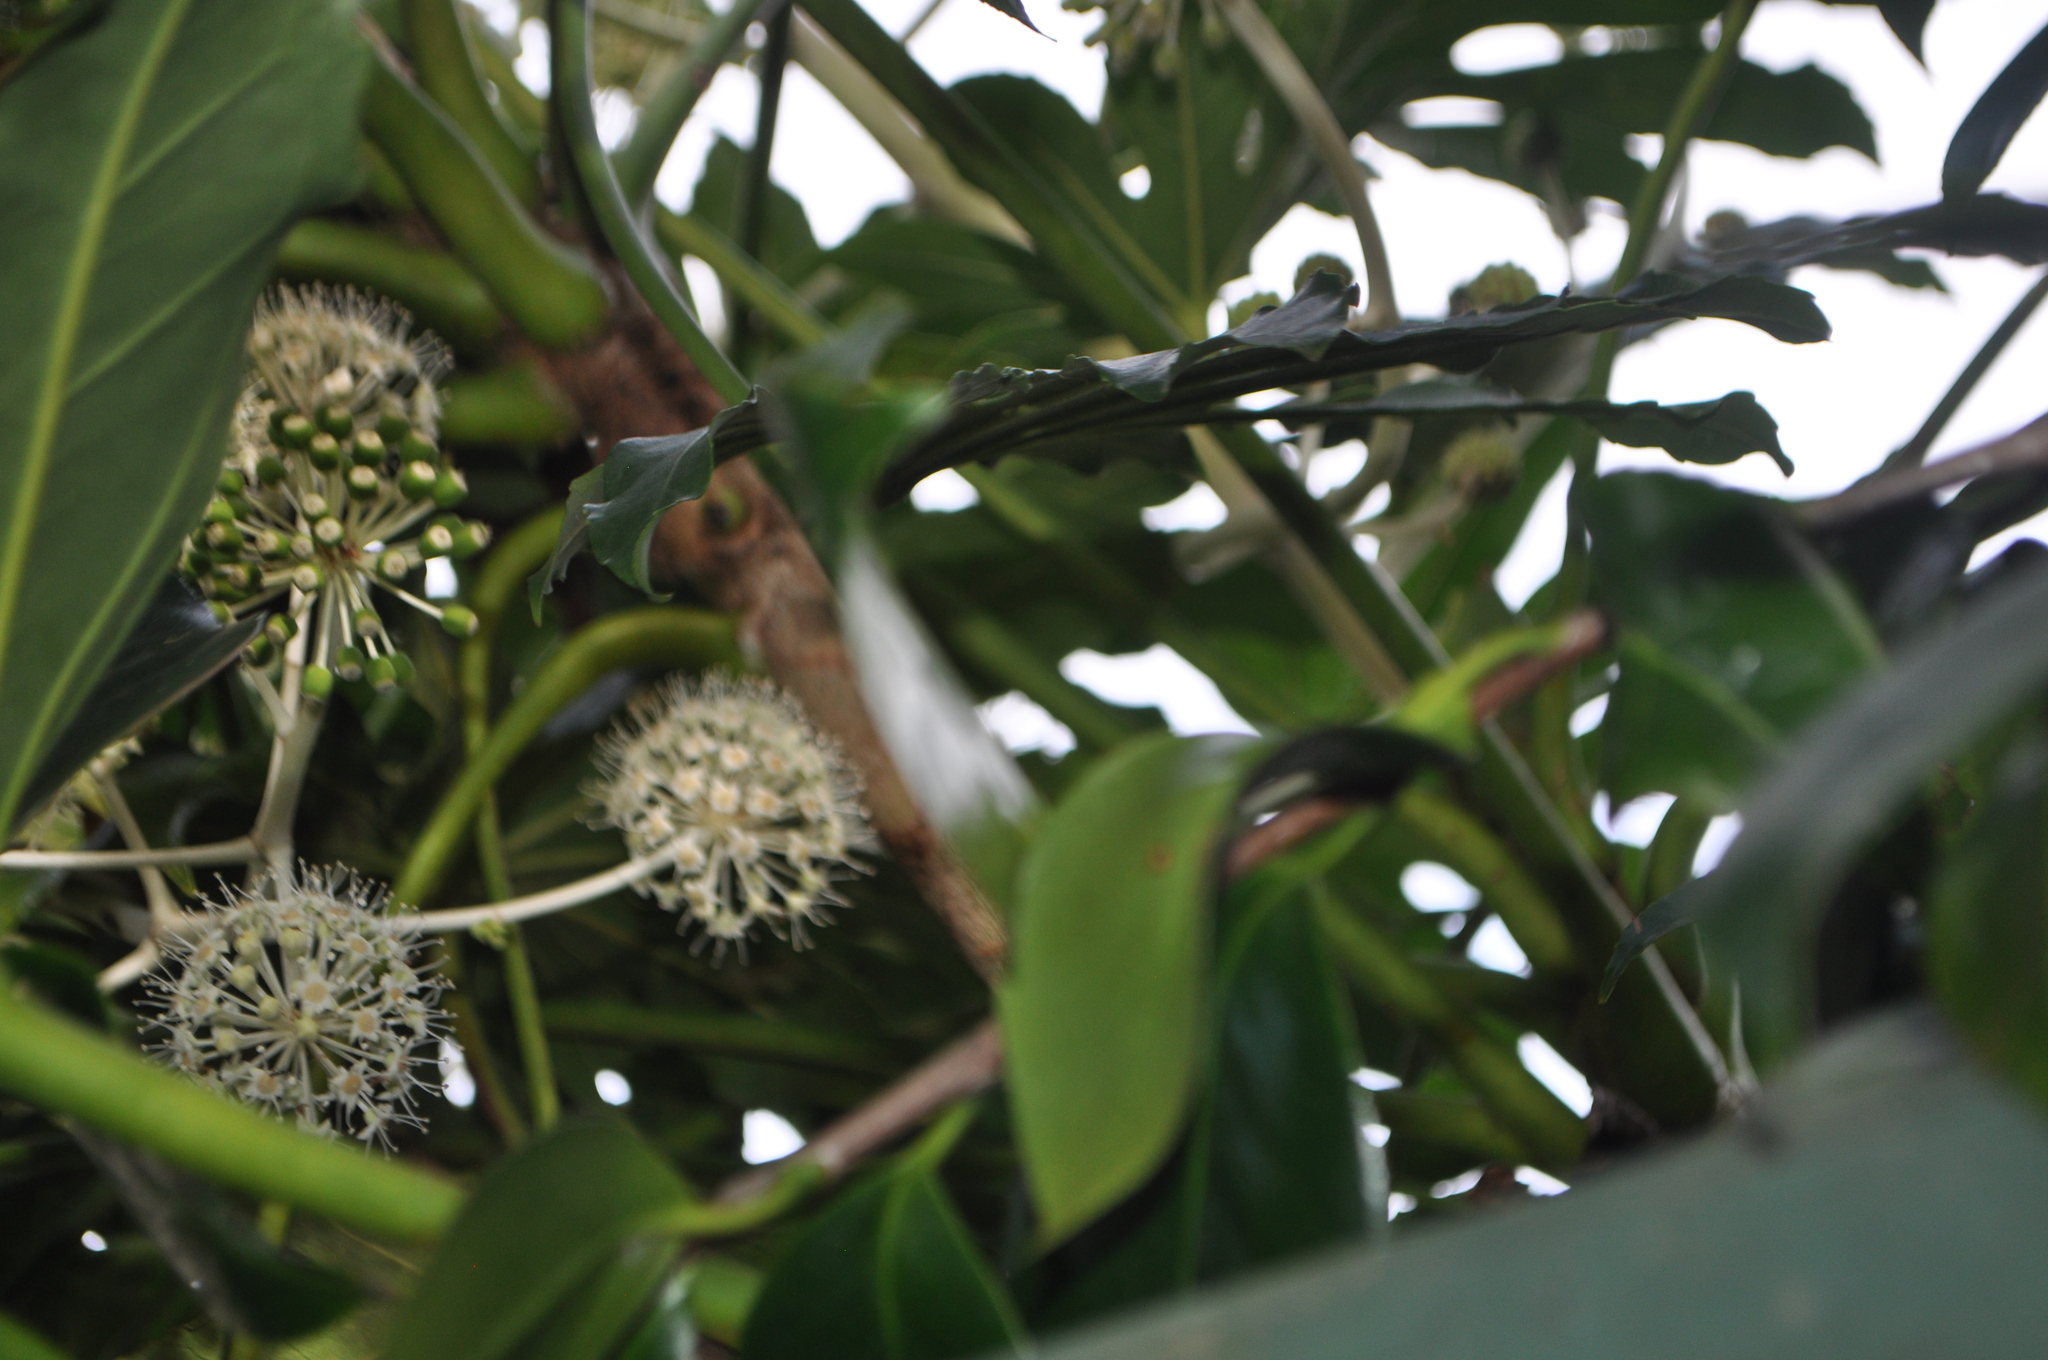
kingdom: Plantae
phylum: Tracheophyta
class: Magnoliopsida
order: Apiales
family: Araliaceae
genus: Fatsia
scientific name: Fatsia japonica
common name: Fatsia
